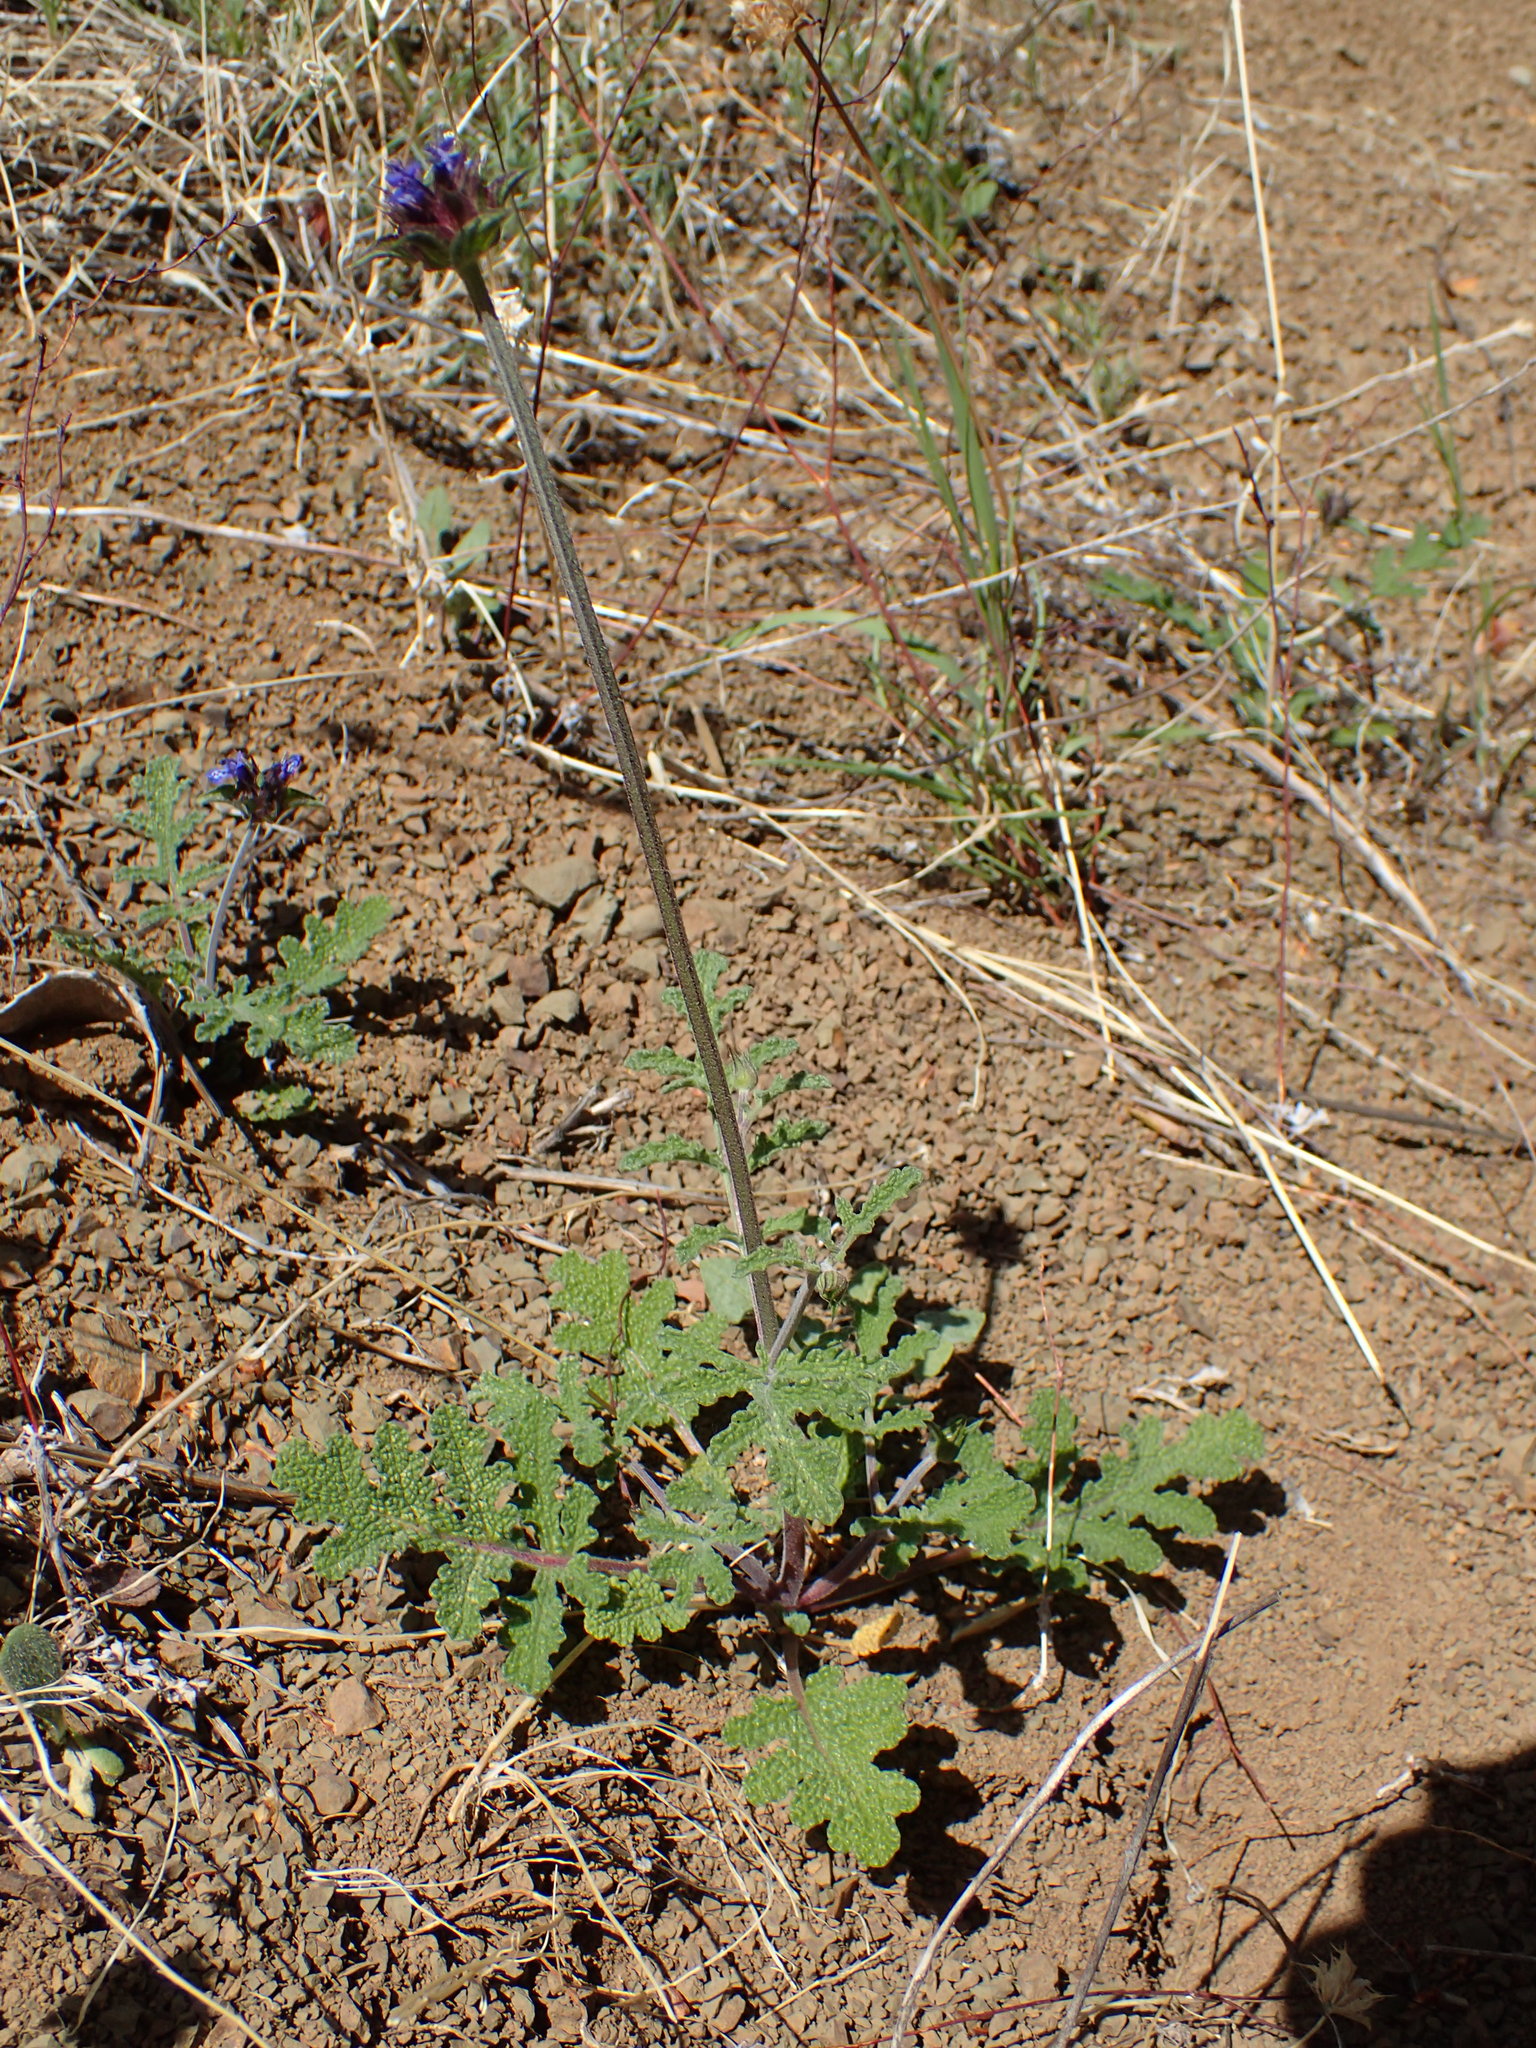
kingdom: Plantae
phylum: Tracheophyta
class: Magnoliopsida
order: Lamiales
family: Lamiaceae
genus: Salvia
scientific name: Salvia columbariae
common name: Chia
